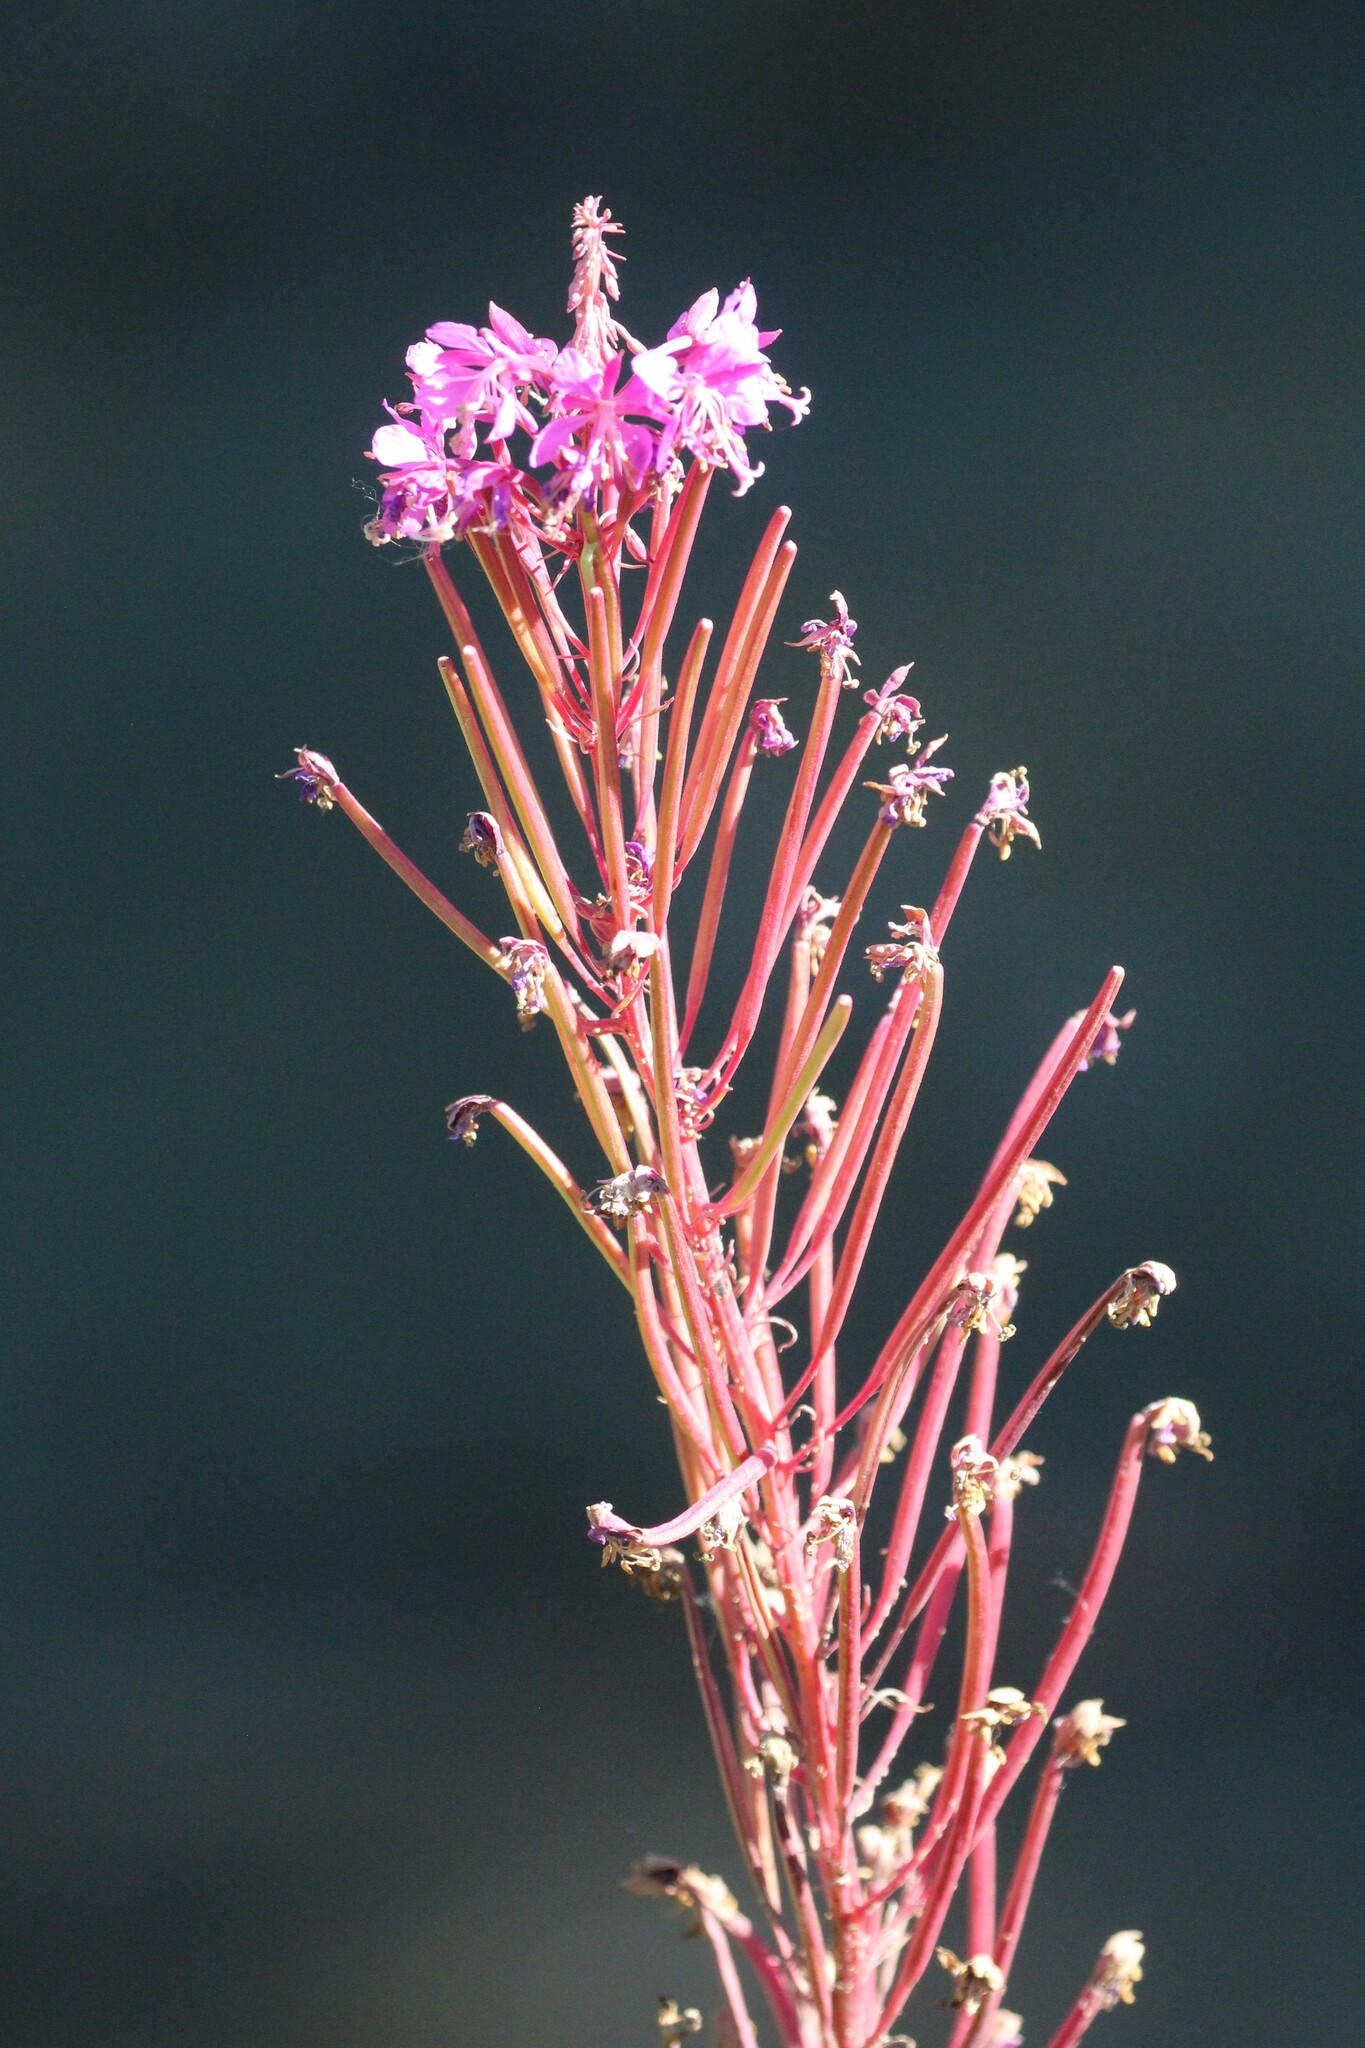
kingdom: Plantae
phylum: Tracheophyta
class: Magnoliopsida
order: Myrtales
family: Onagraceae
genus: Chamaenerion
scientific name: Chamaenerion angustifolium
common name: Fireweed
